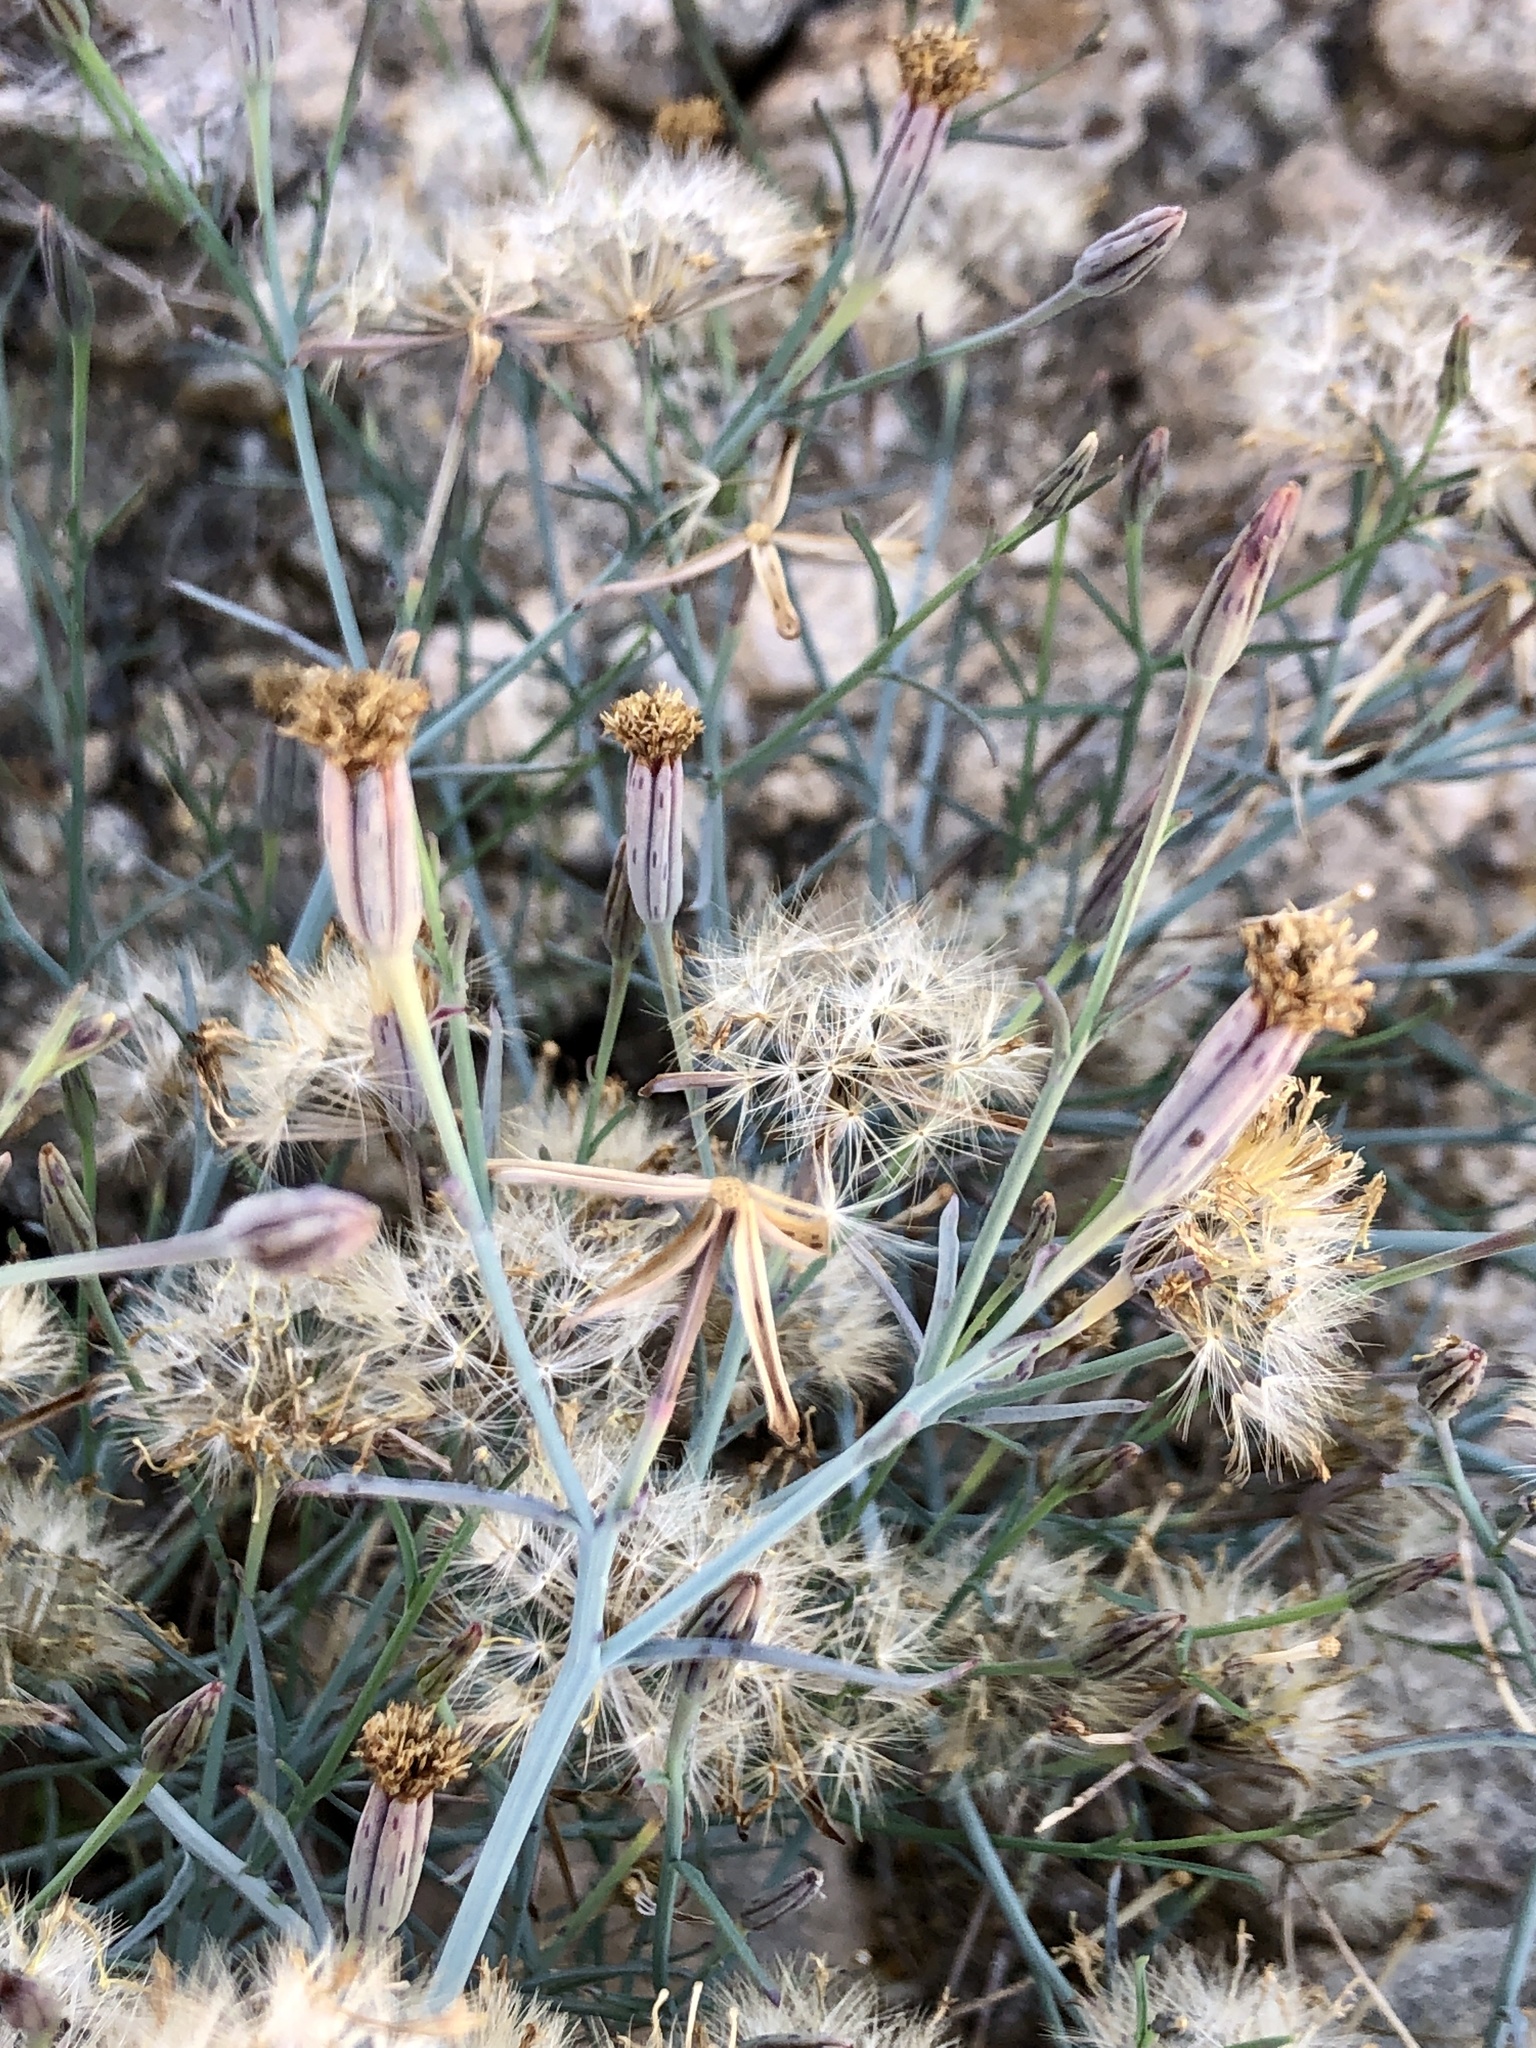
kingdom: Plantae
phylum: Tracheophyta
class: Magnoliopsida
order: Asterales
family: Asteraceae
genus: Porophyllum
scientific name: Porophyllum gracile
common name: Odora
